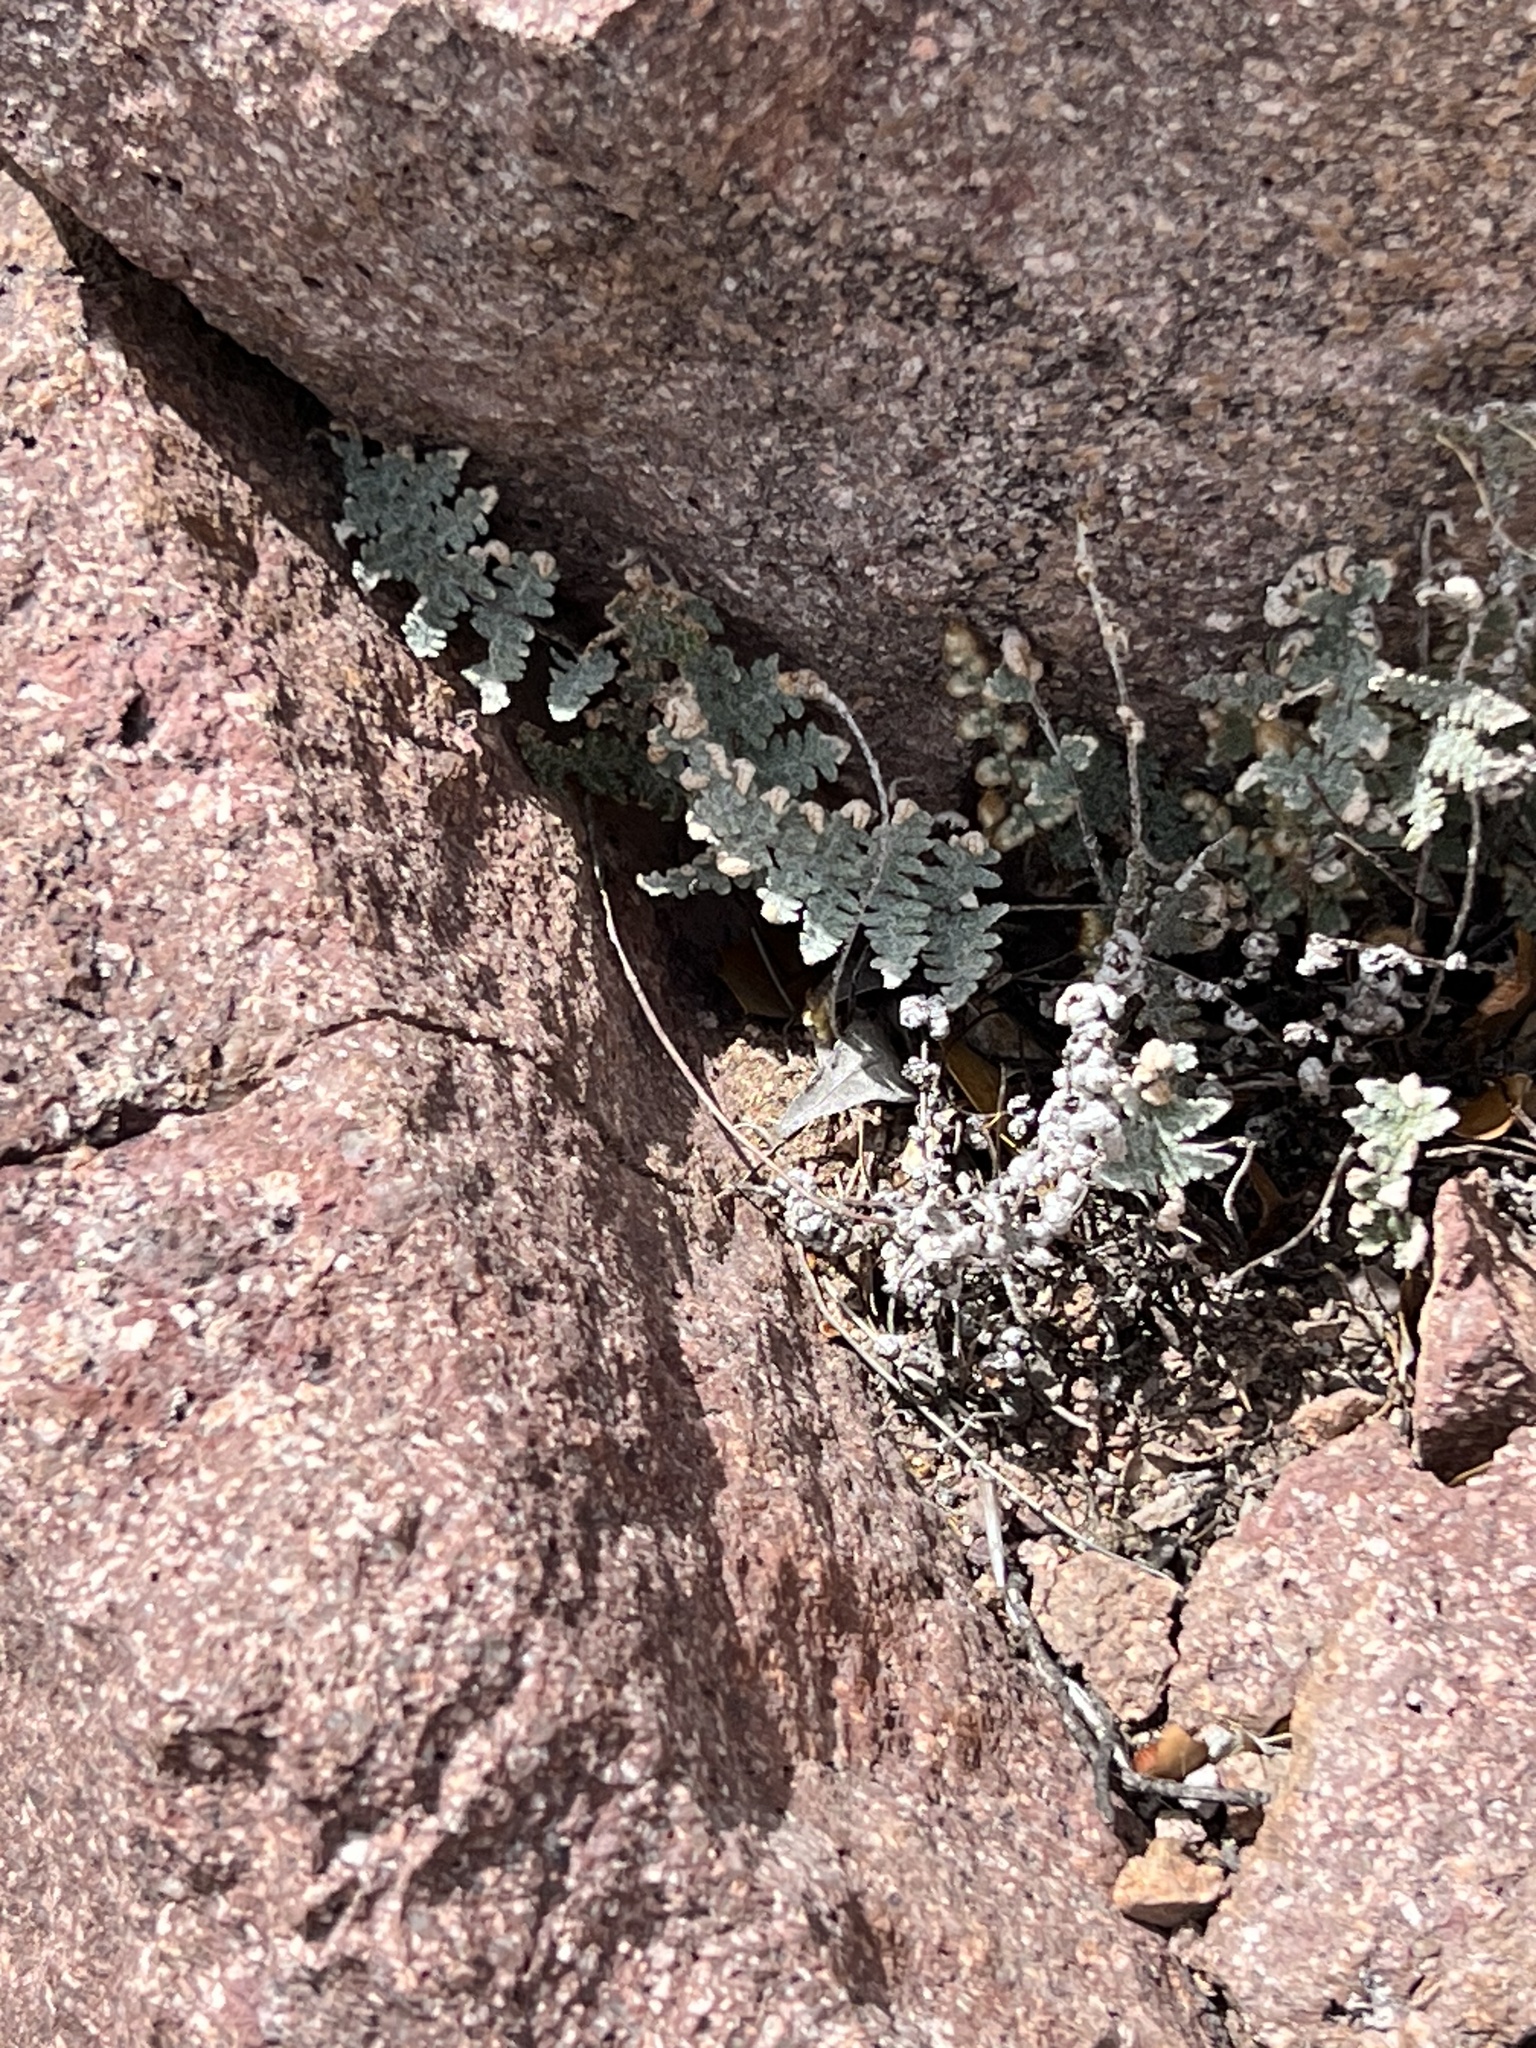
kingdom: Plantae
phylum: Tracheophyta
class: Polypodiopsida
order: Polypodiales
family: Pteridaceae
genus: Myriopteris
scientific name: Myriopteris lindheimeri
